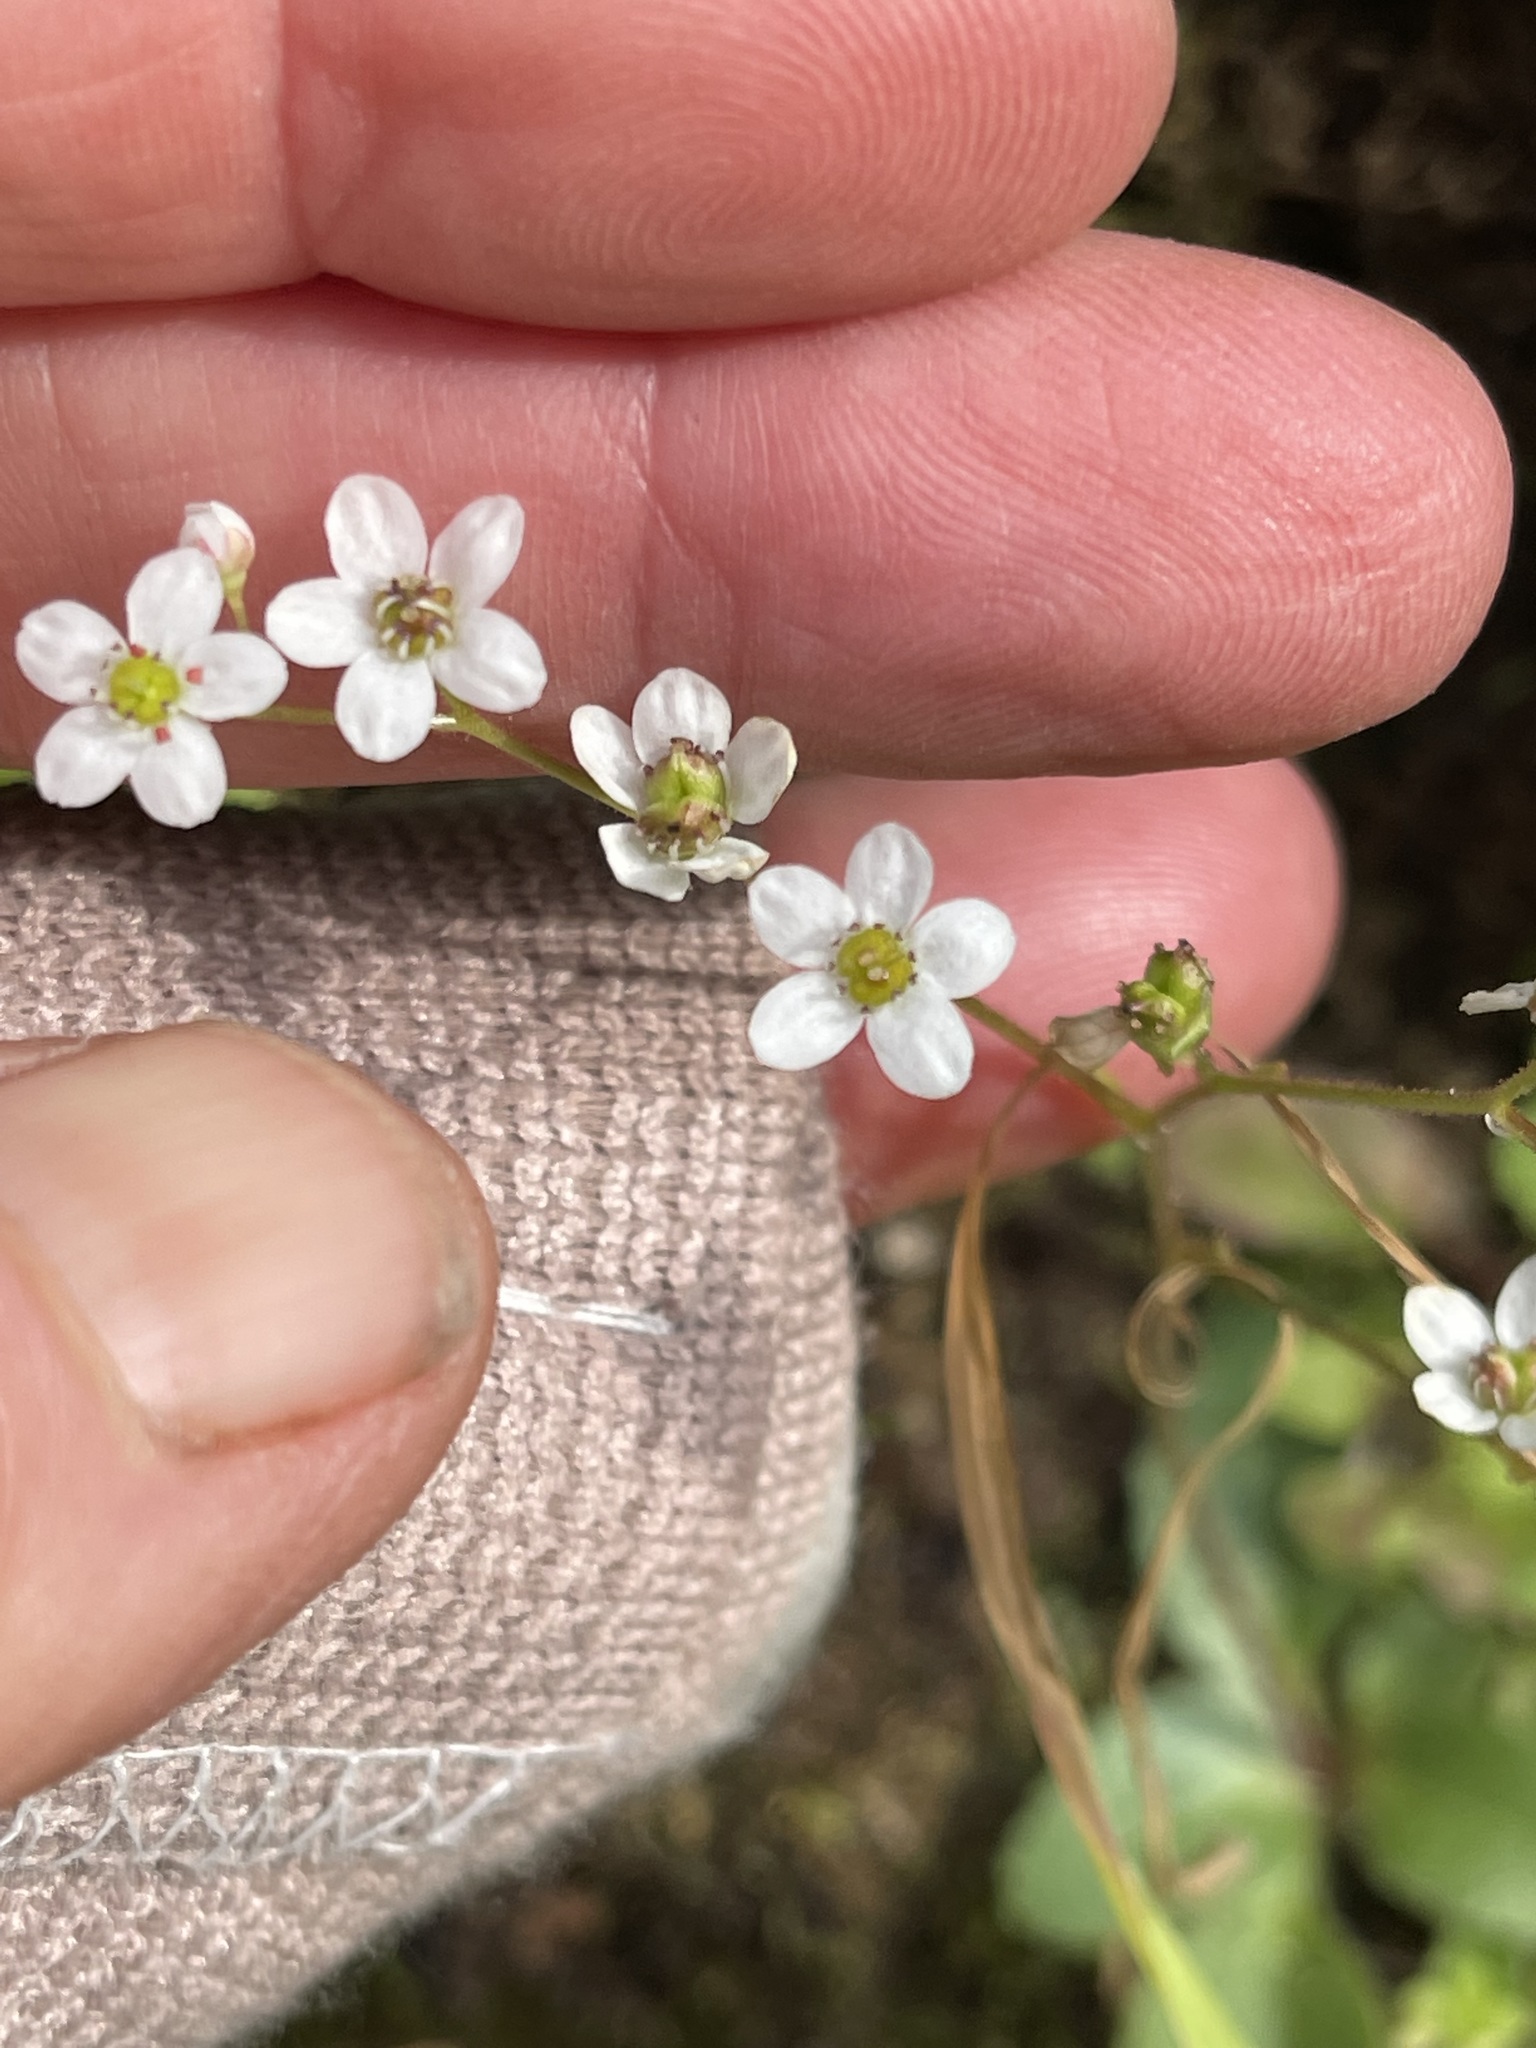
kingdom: Plantae
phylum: Tracheophyta
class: Magnoliopsida
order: Saxifragales
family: Saxifragaceae
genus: Micranthes
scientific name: Micranthes californica
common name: California saxifrage
